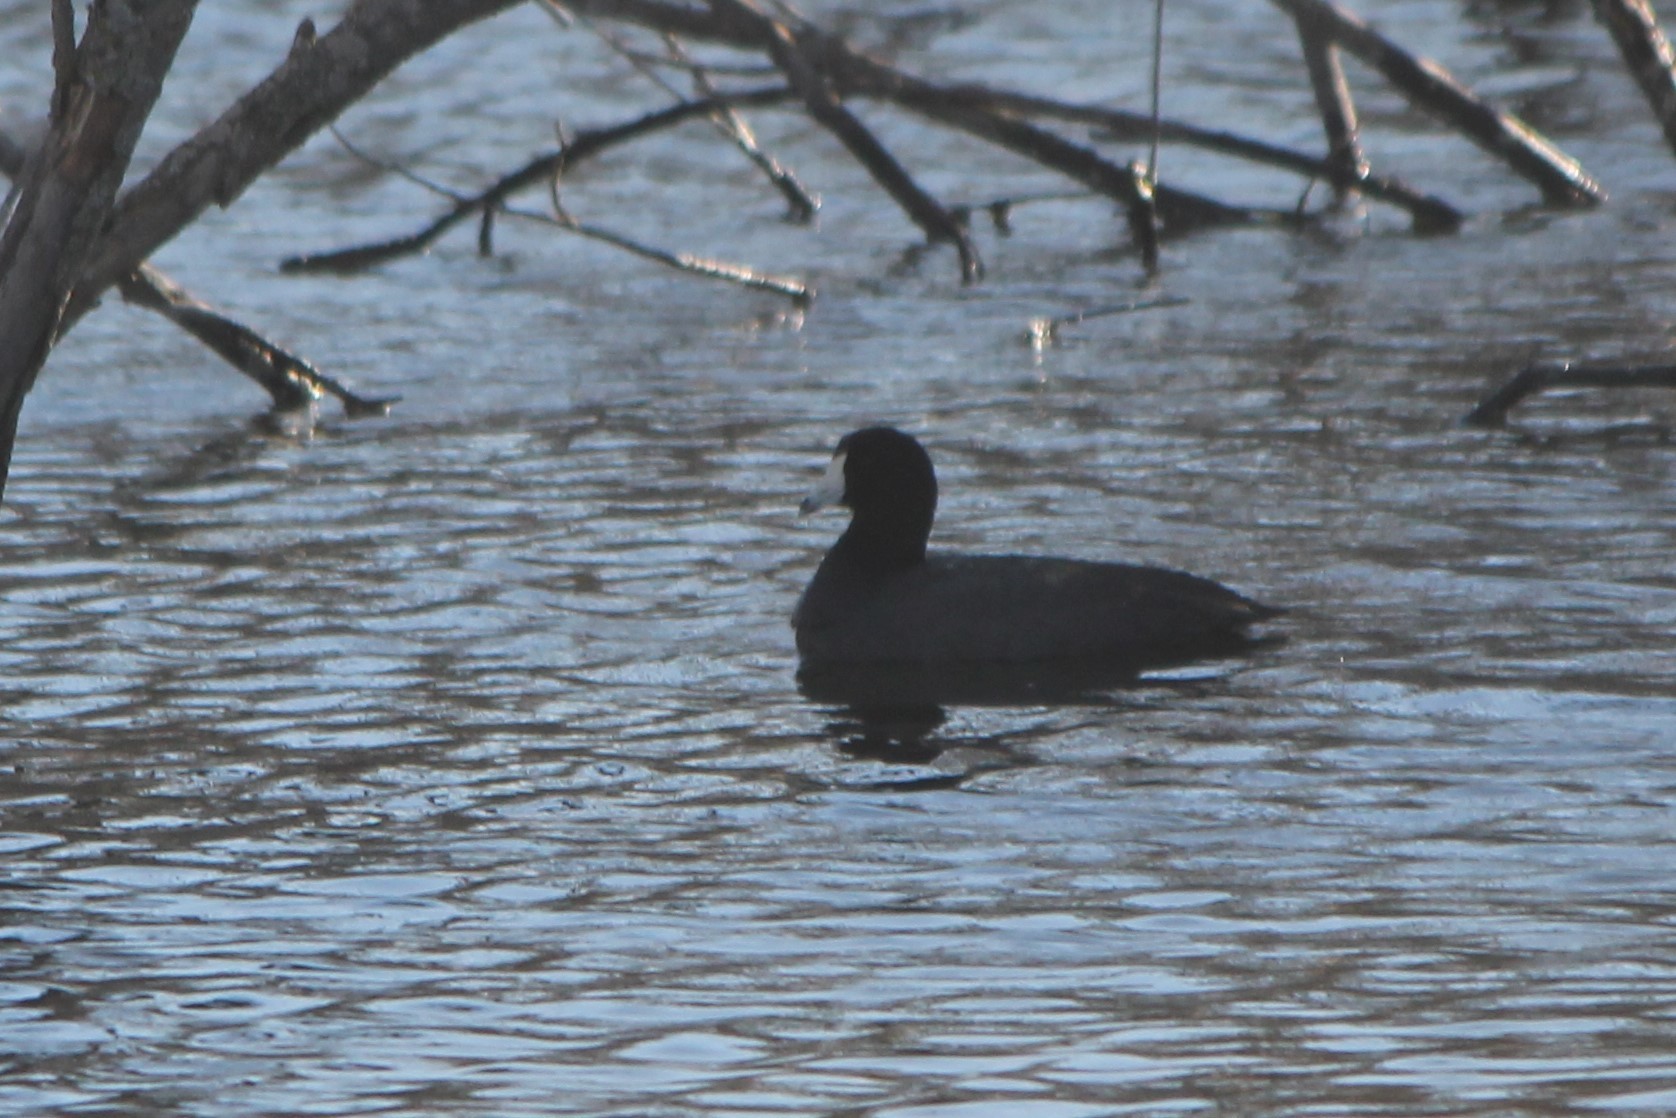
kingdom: Animalia
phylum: Chordata
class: Aves
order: Gruiformes
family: Rallidae
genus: Fulica
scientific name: Fulica americana
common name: American coot
